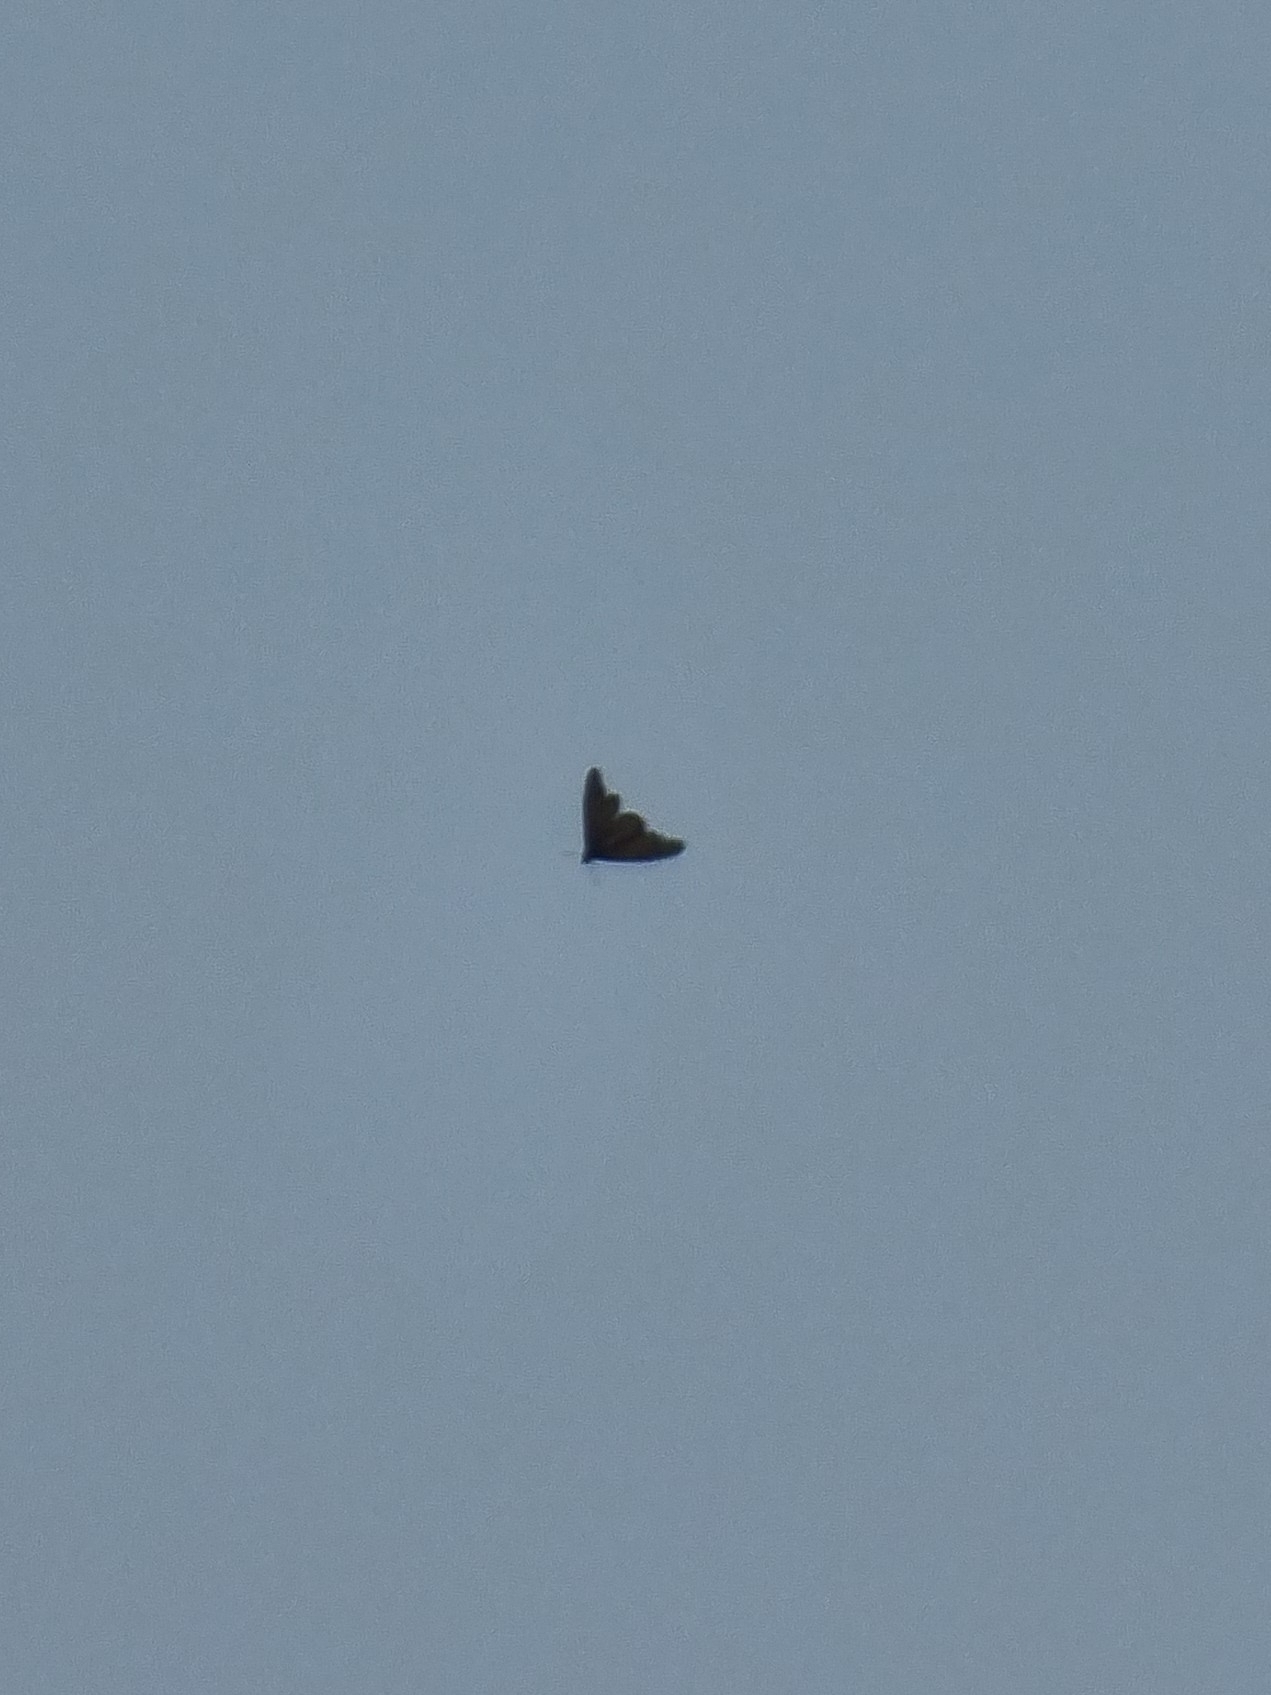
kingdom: Animalia
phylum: Arthropoda
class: Insecta
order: Lepidoptera
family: Nymphalidae
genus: Danaus
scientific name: Danaus plexippus
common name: Monarch
